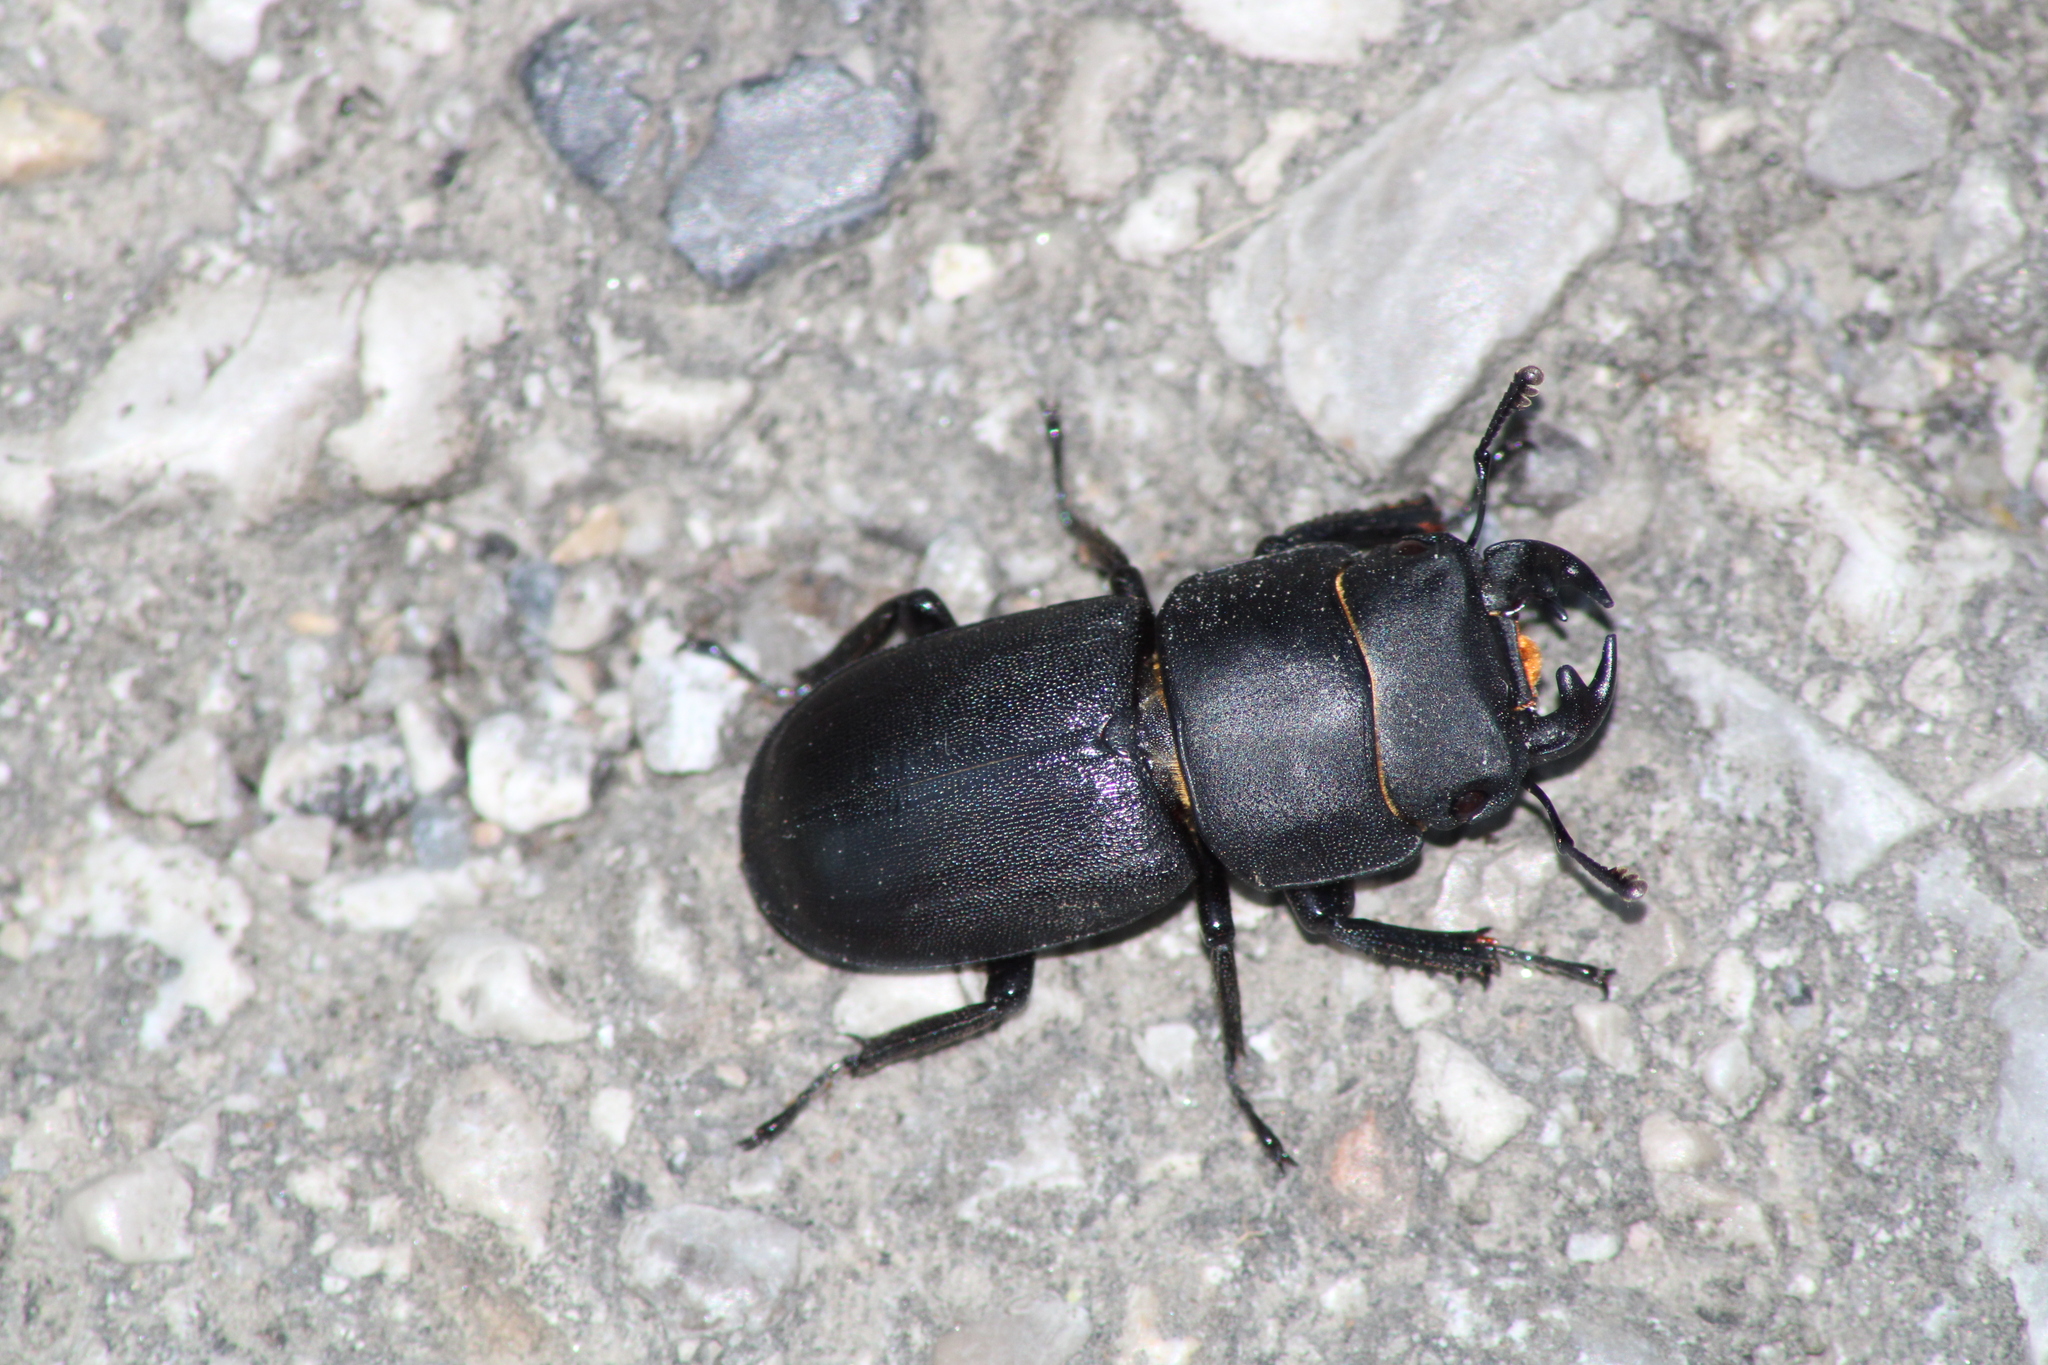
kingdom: Animalia
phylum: Arthropoda
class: Insecta
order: Coleoptera
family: Lucanidae
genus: Dorcus
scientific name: Dorcus parallelipipedus
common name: Lesser stag beetle
